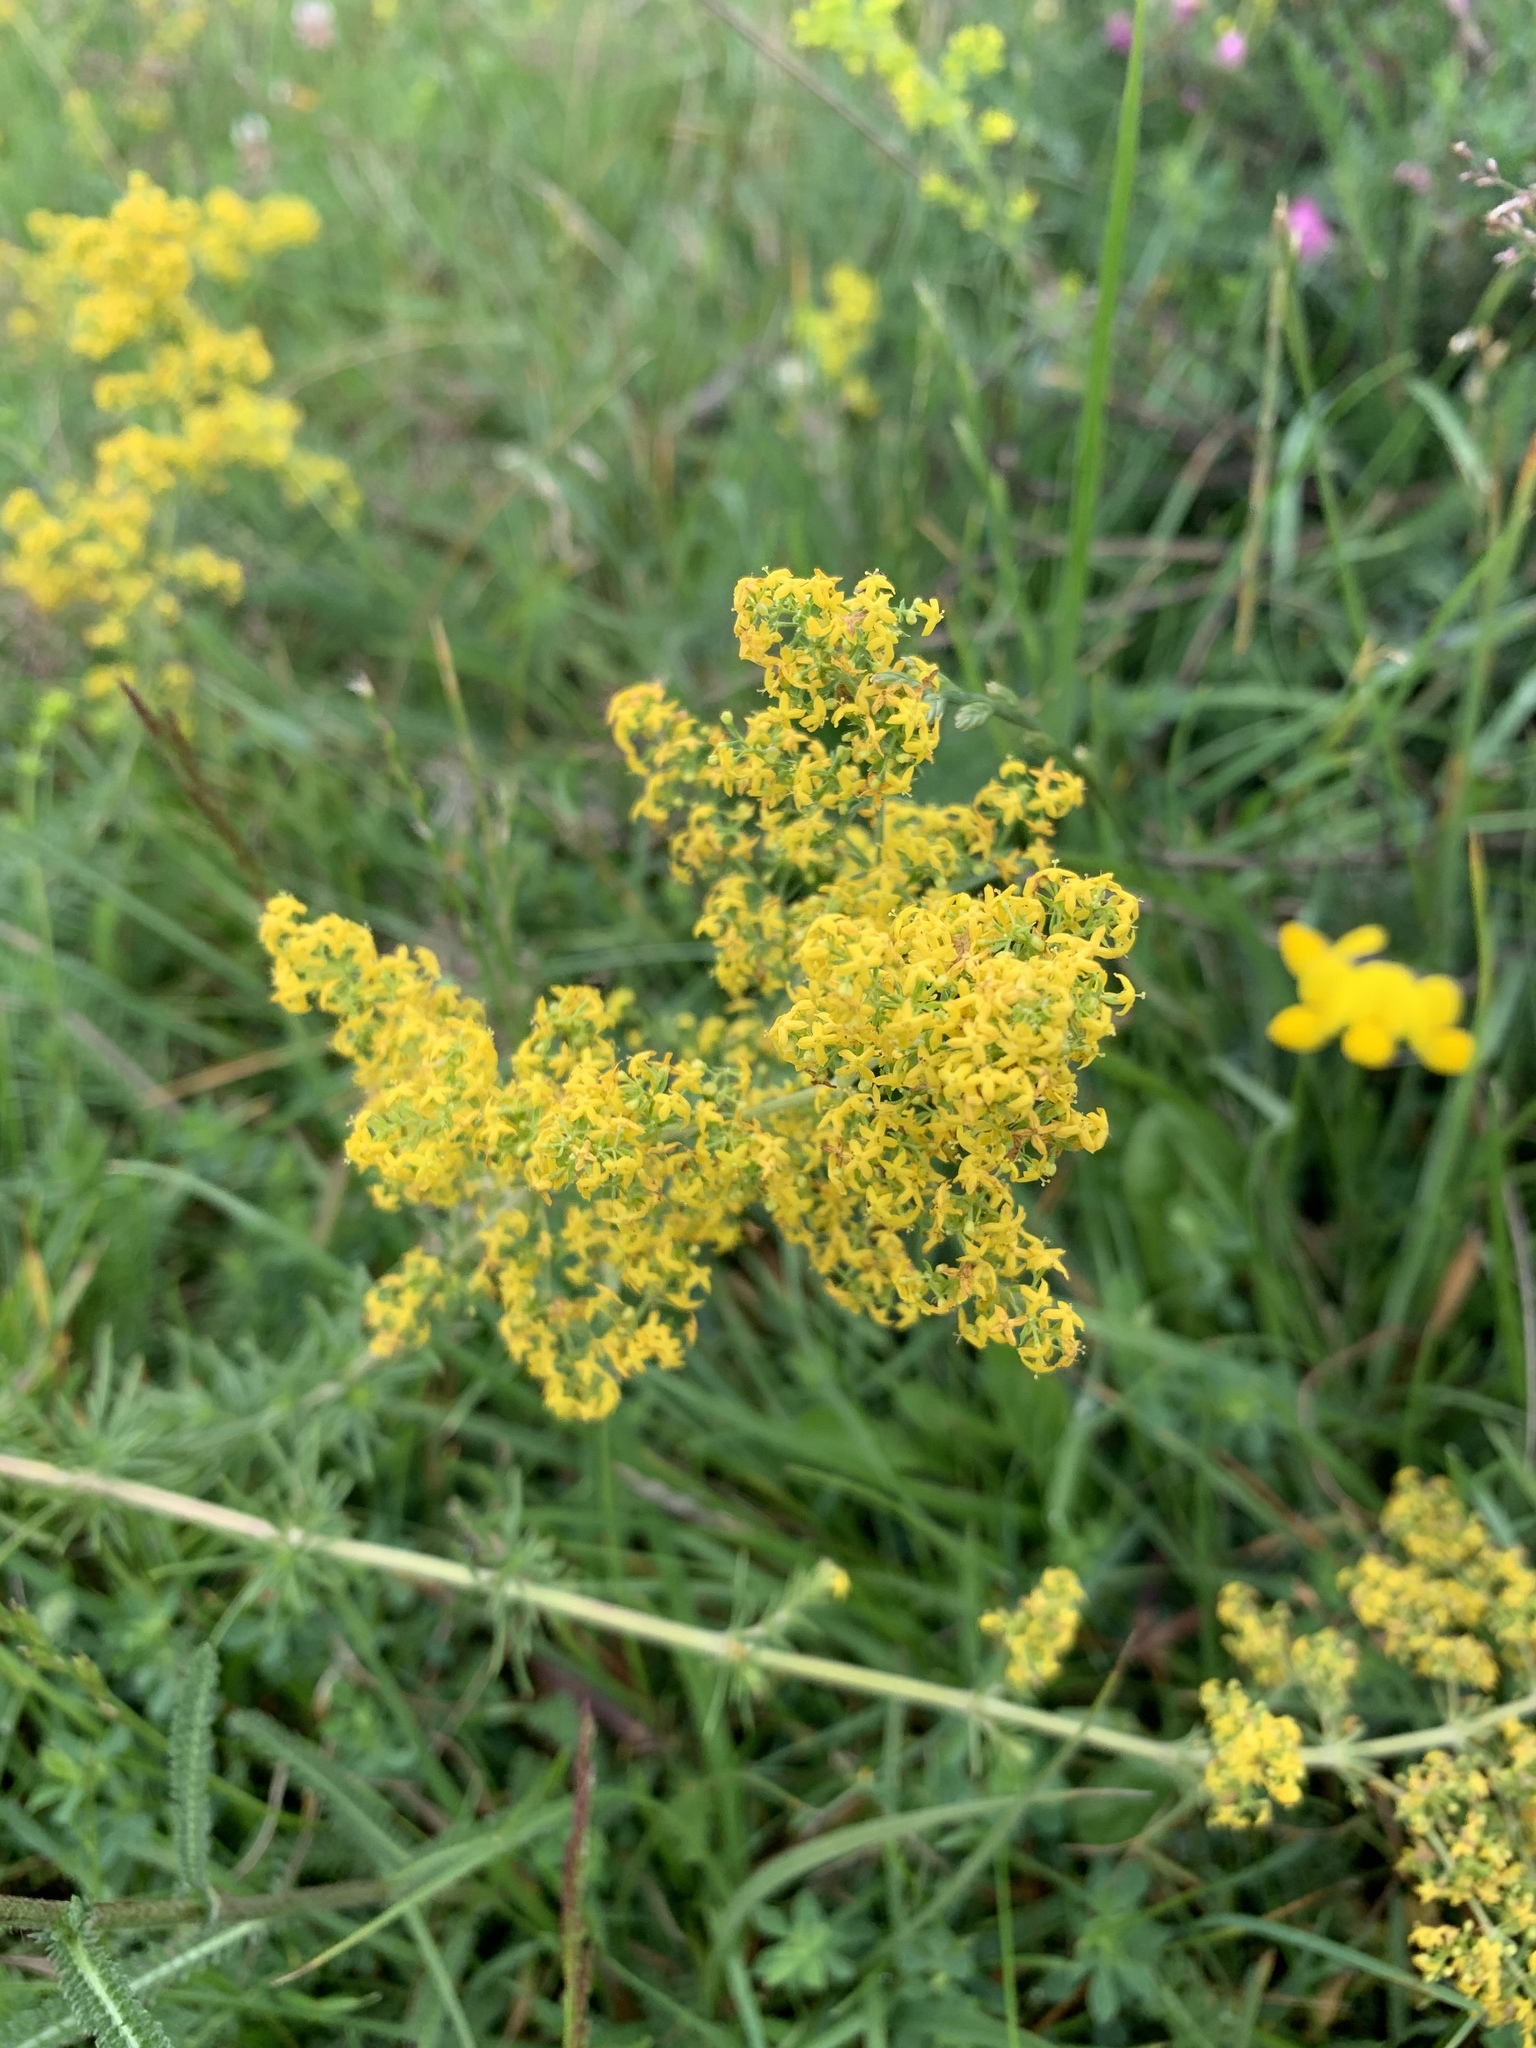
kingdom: Plantae
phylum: Tracheophyta
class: Magnoliopsida
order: Gentianales
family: Rubiaceae
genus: Galium
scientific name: Galium verum
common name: Lady's bedstraw
